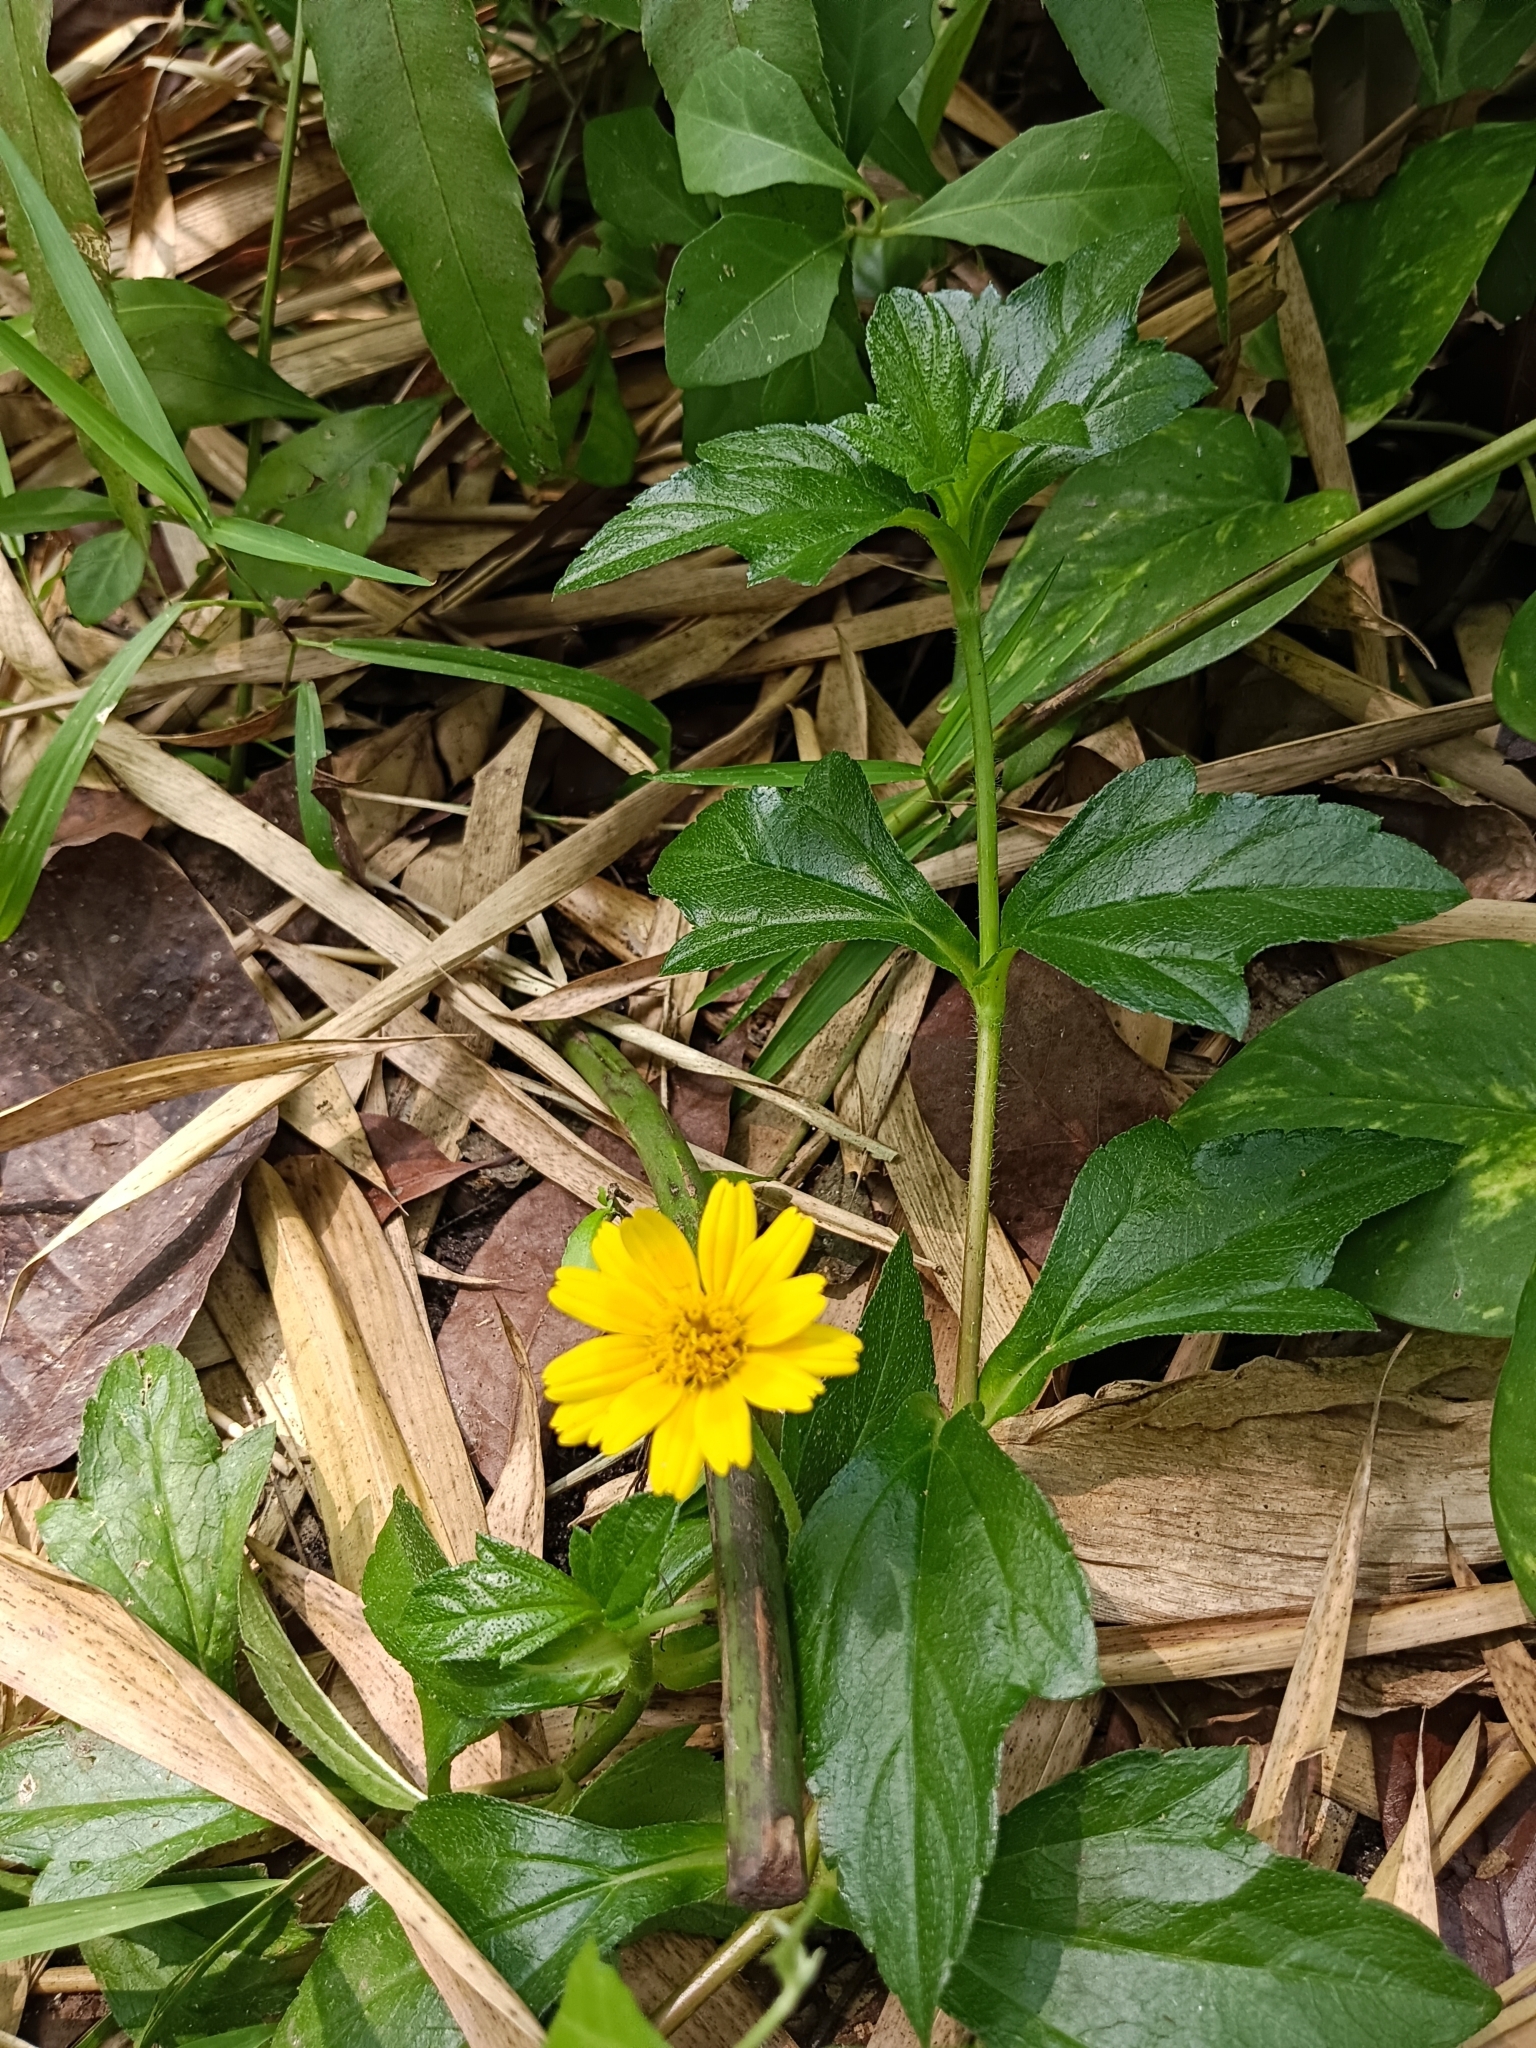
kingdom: Plantae
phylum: Tracheophyta
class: Magnoliopsida
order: Asterales
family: Asteraceae
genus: Sphagneticola
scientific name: Sphagneticola trilobata
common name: Bay biscayne creeping-oxeye
